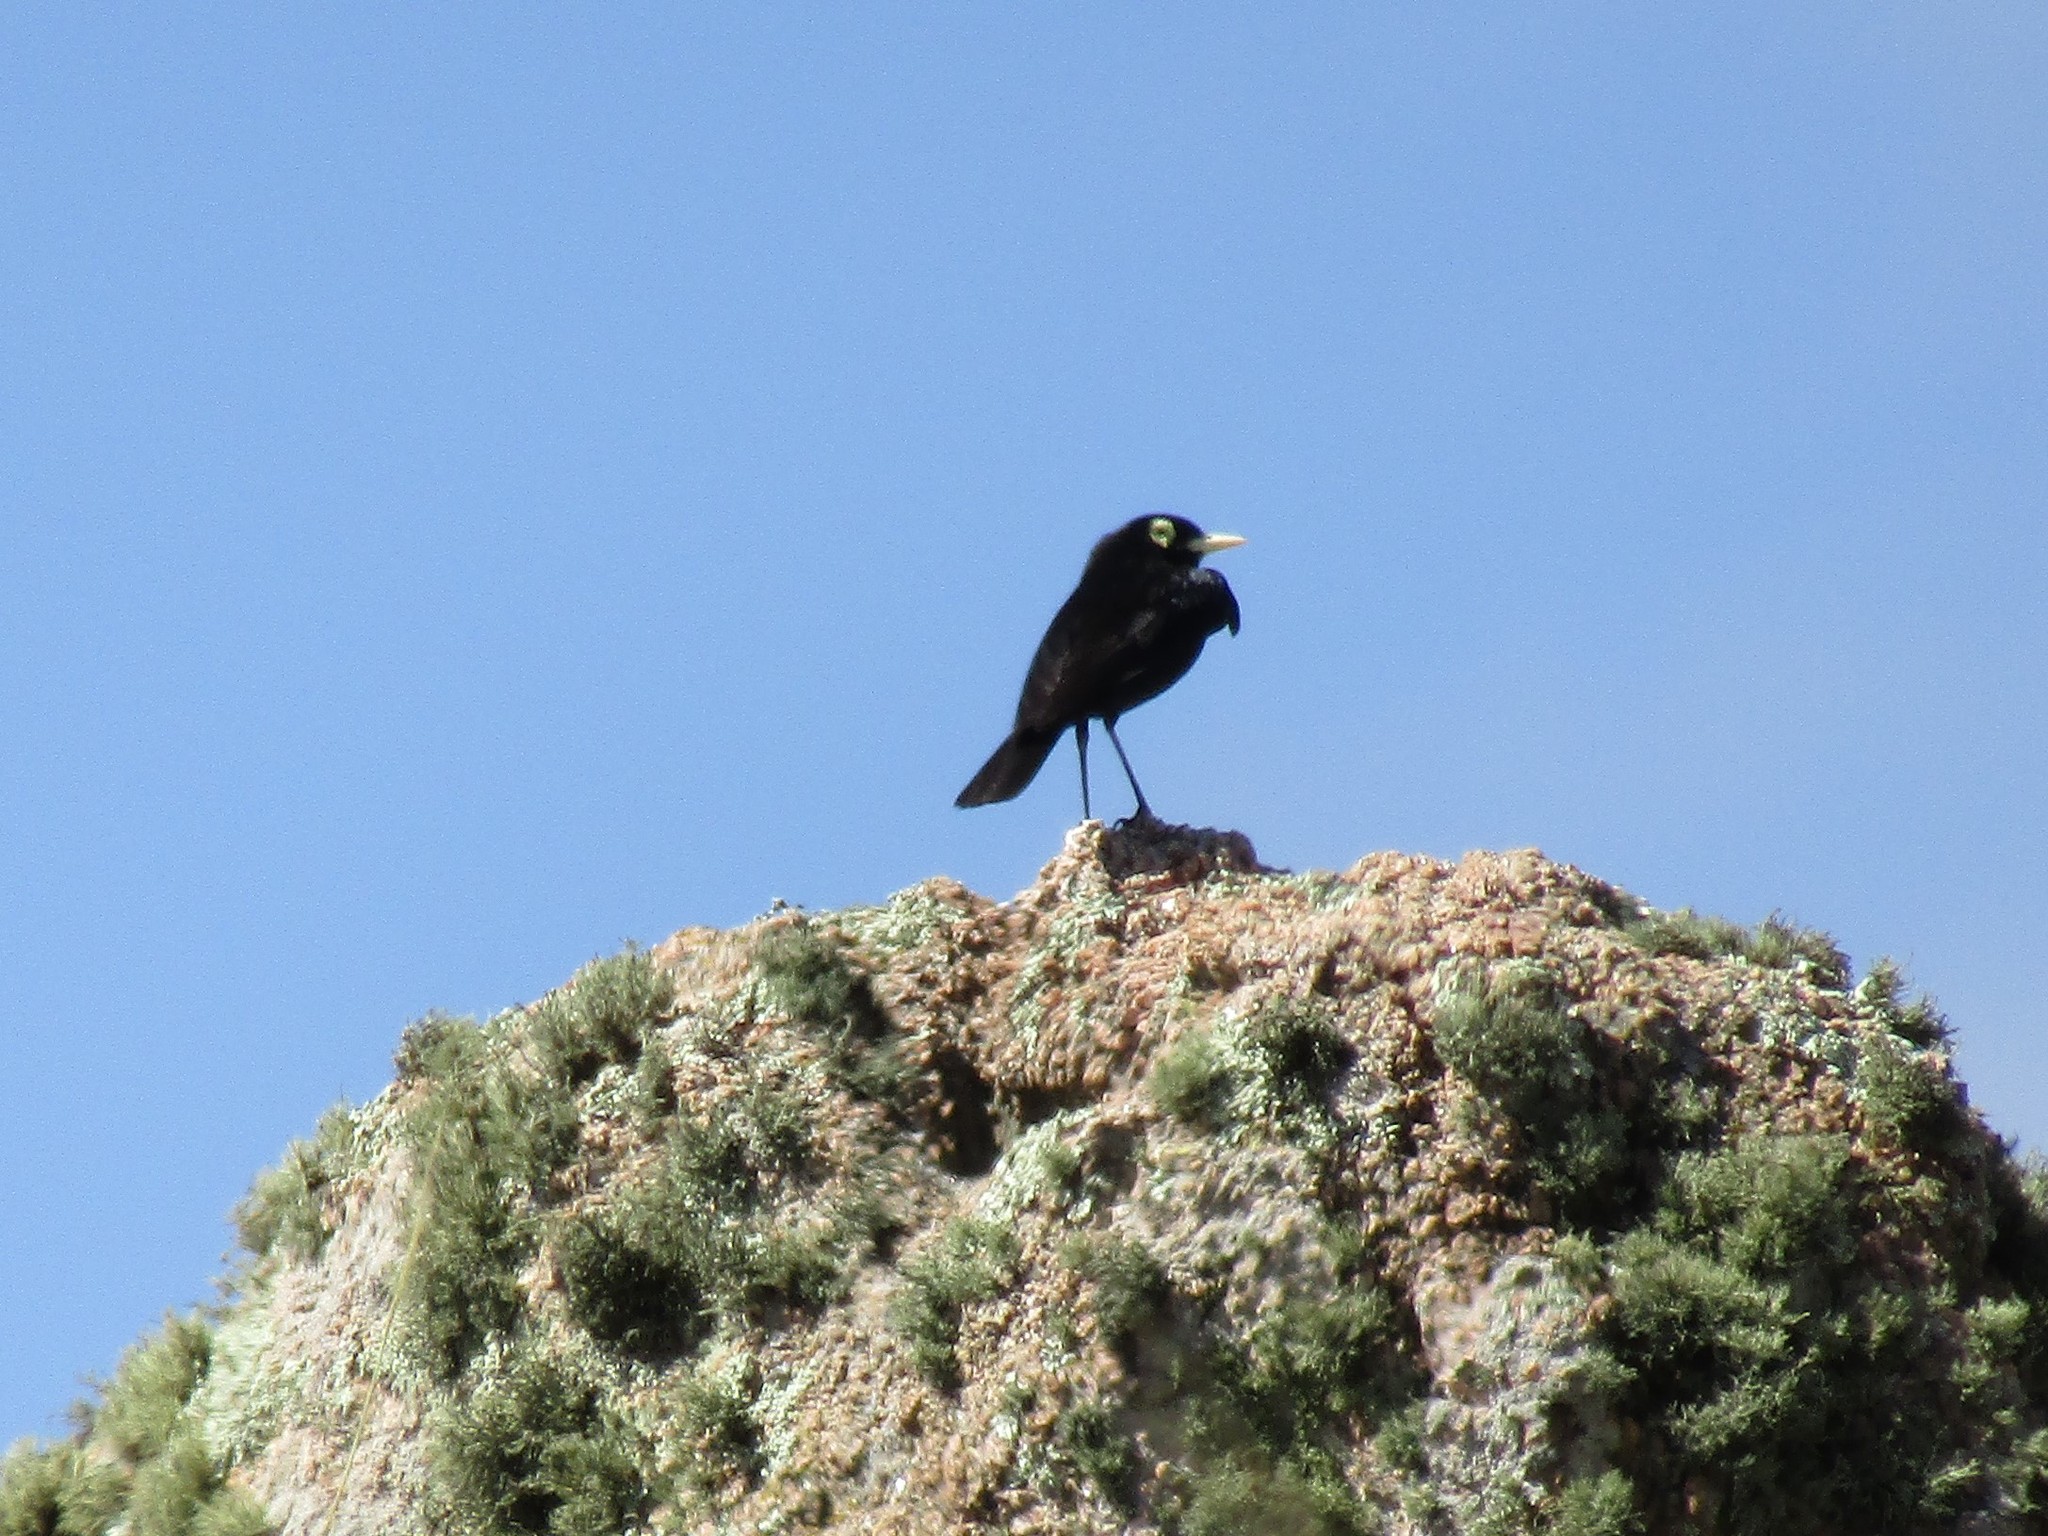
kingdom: Animalia
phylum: Chordata
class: Aves
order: Passeriformes
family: Tyrannidae
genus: Hymenops
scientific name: Hymenops perspicillatus
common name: Spectacled tyrant
